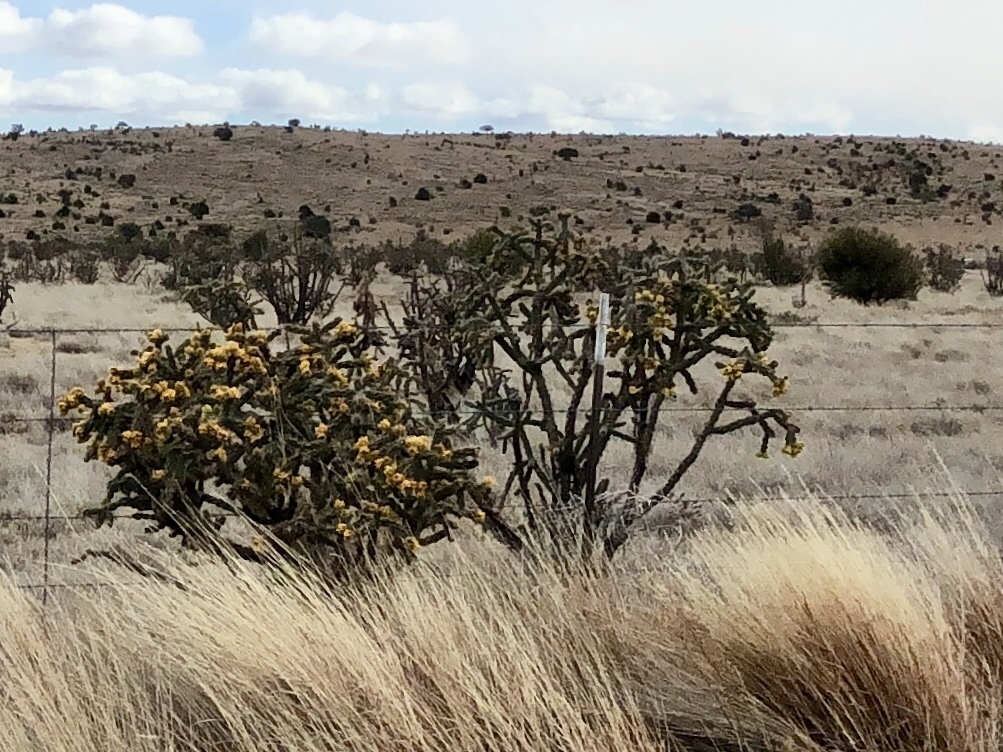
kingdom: Plantae
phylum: Tracheophyta
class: Magnoliopsida
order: Caryophyllales
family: Cactaceae
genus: Cylindropuntia
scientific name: Cylindropuntia imbricata
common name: Candelabrum cactus
